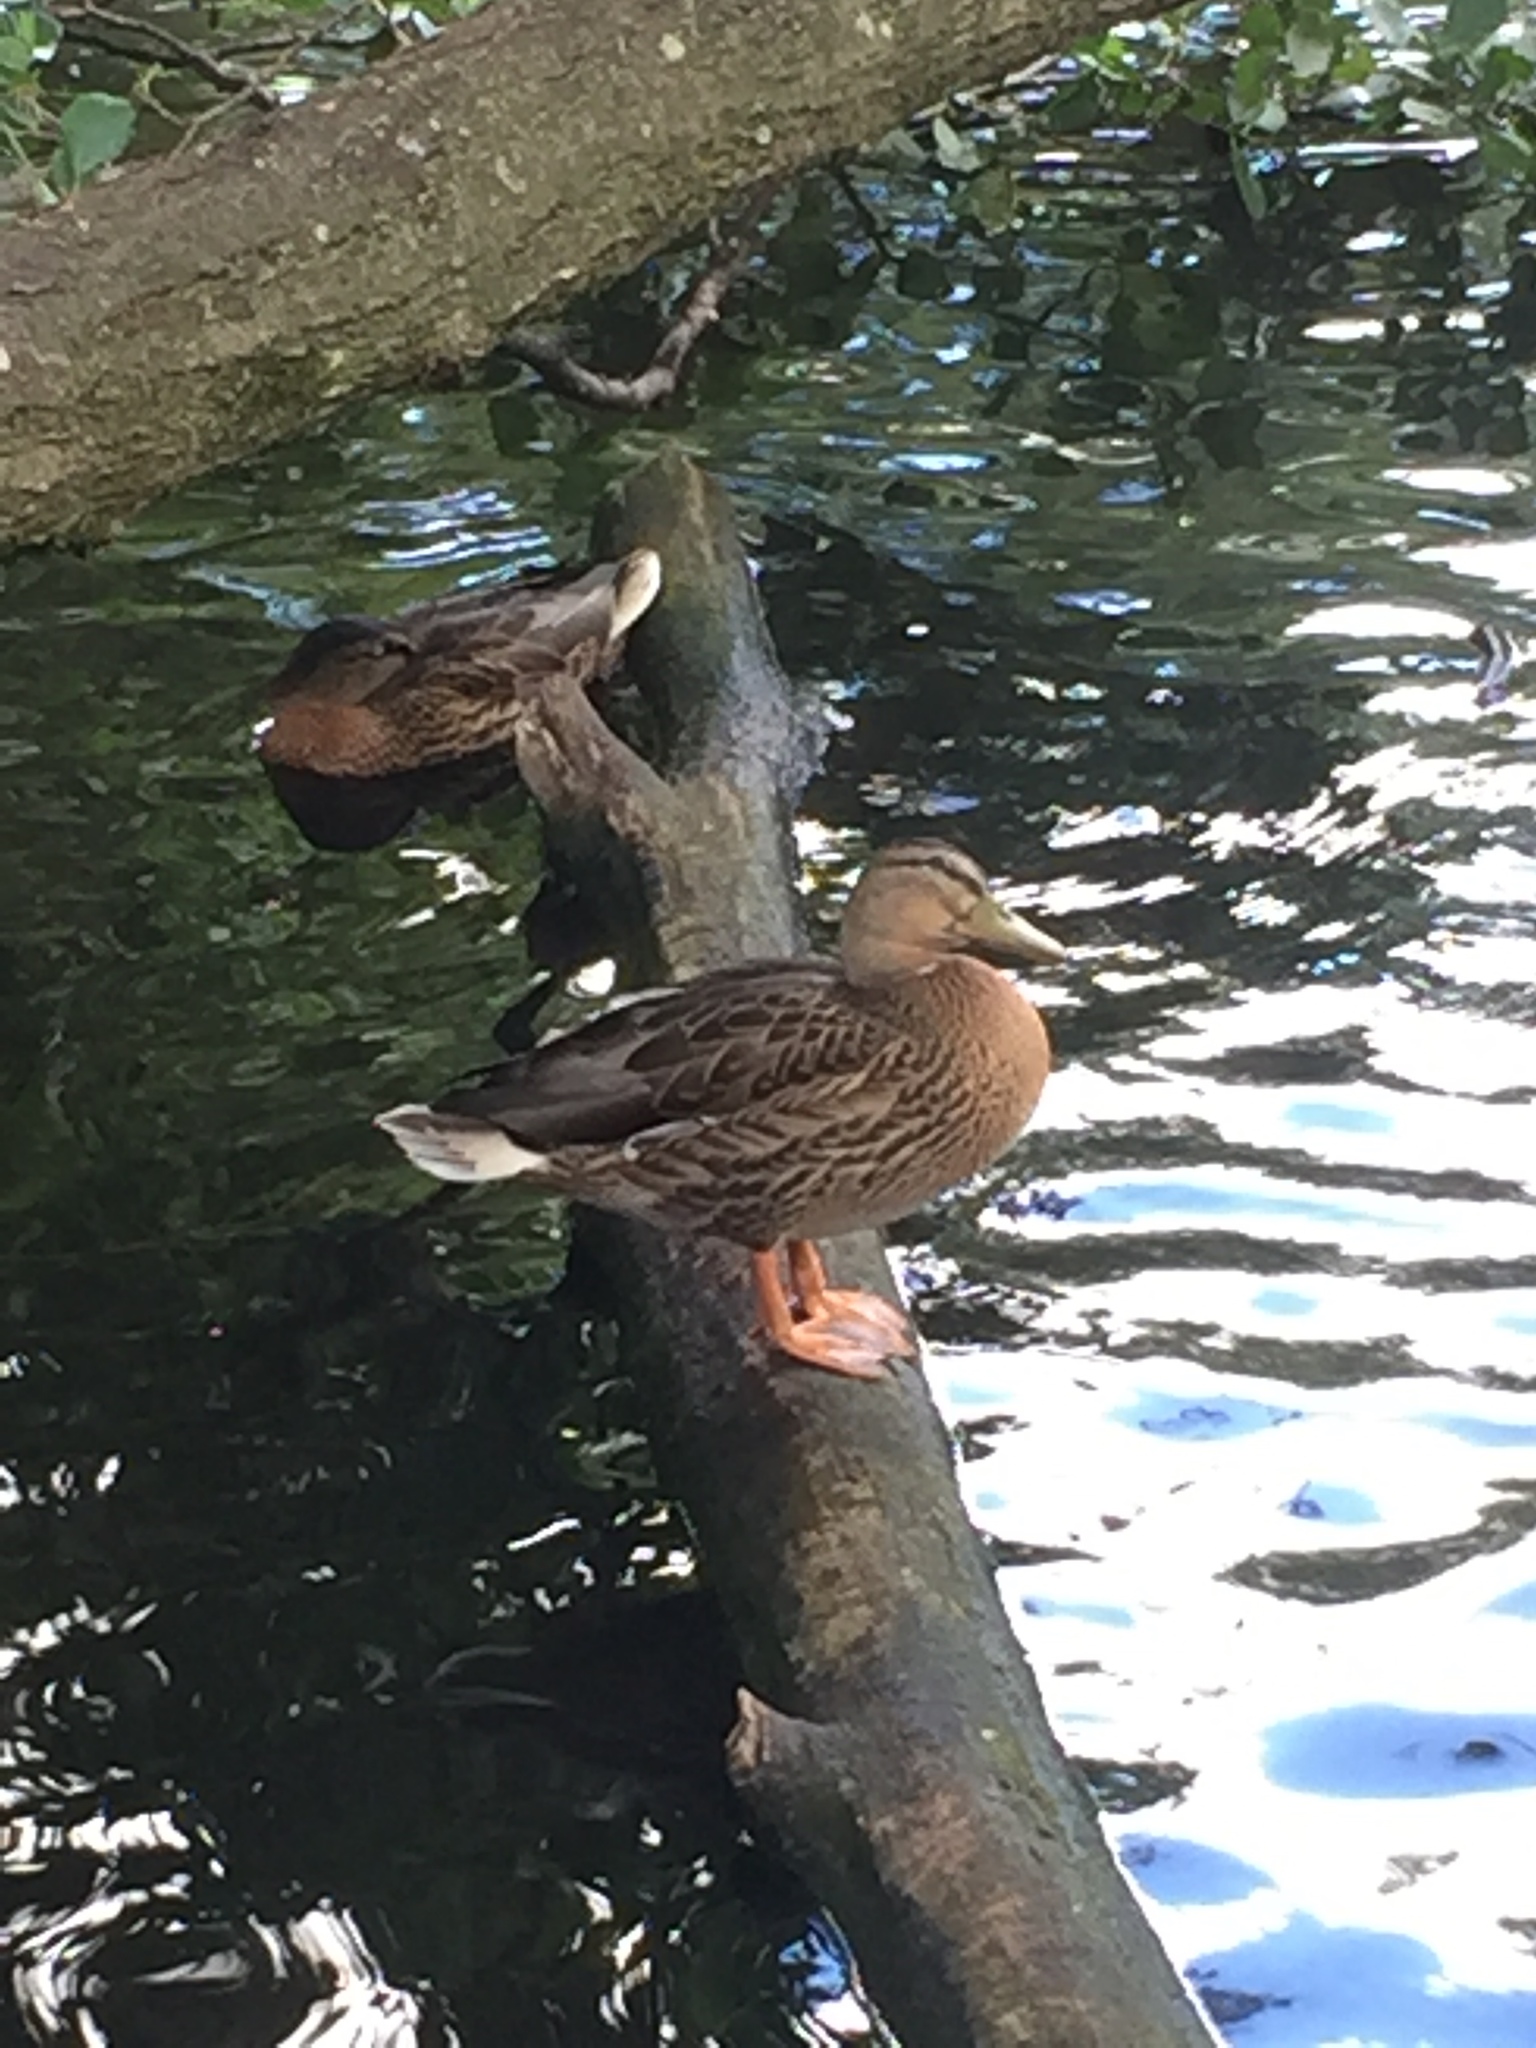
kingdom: Animalia
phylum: Chordata
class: Aves
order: Anseriformes
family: Anatidae
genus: Anas
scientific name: Anas platyrhynchos
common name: Mallard
